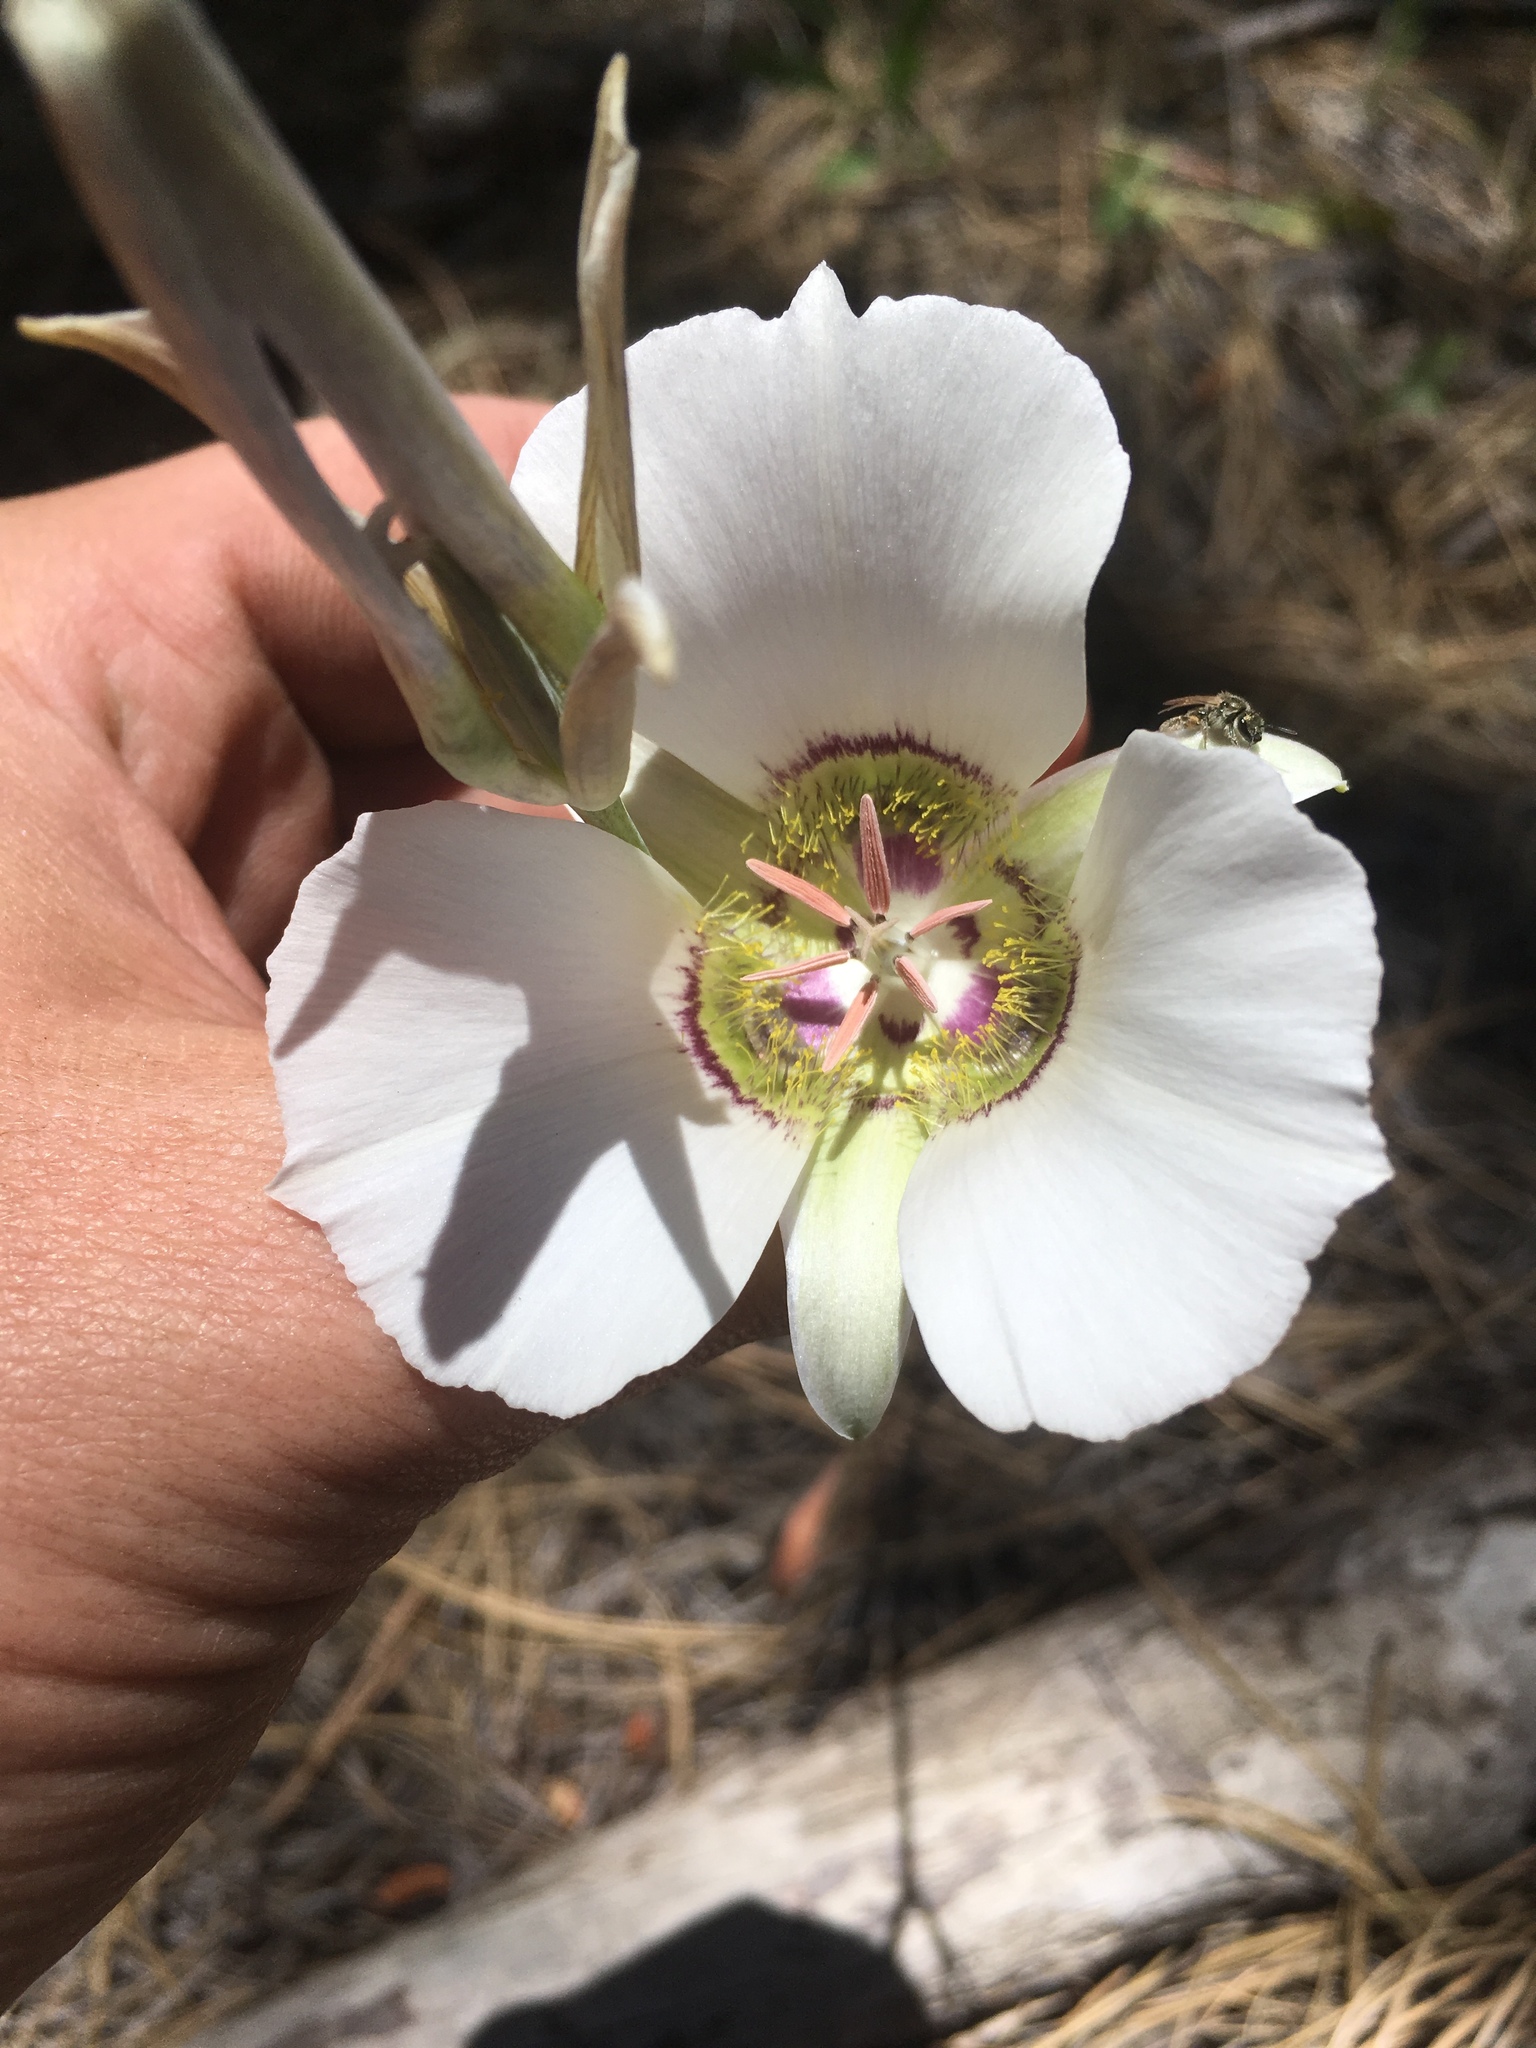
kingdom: Plantae
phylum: Tracheophyta
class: Liliopsida
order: Liliales
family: Liliaceae
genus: Calochortus
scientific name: Calochortus ambiguus
